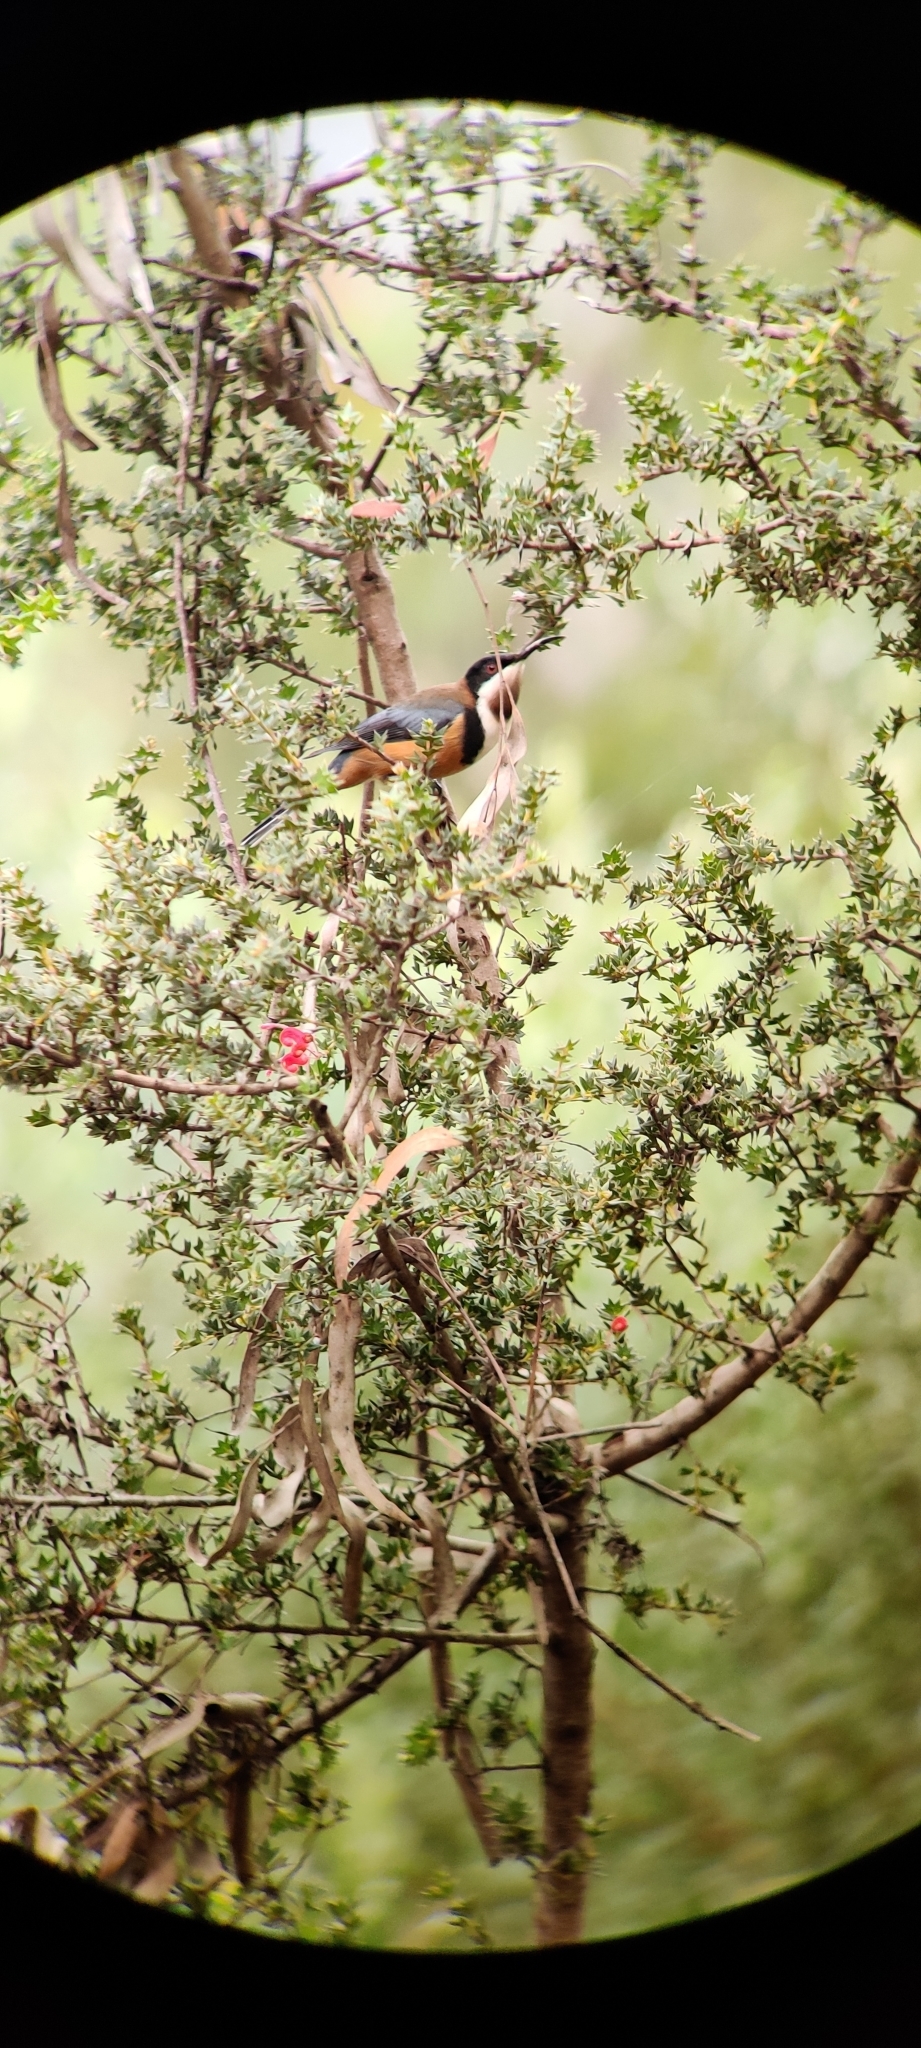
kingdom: Animalia
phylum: Chordata
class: Aves
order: Passeriformes
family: Meliphagidae
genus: Acanthorhynchus
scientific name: Acanthorhynchus tenuirostris
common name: Eastern spinebill
